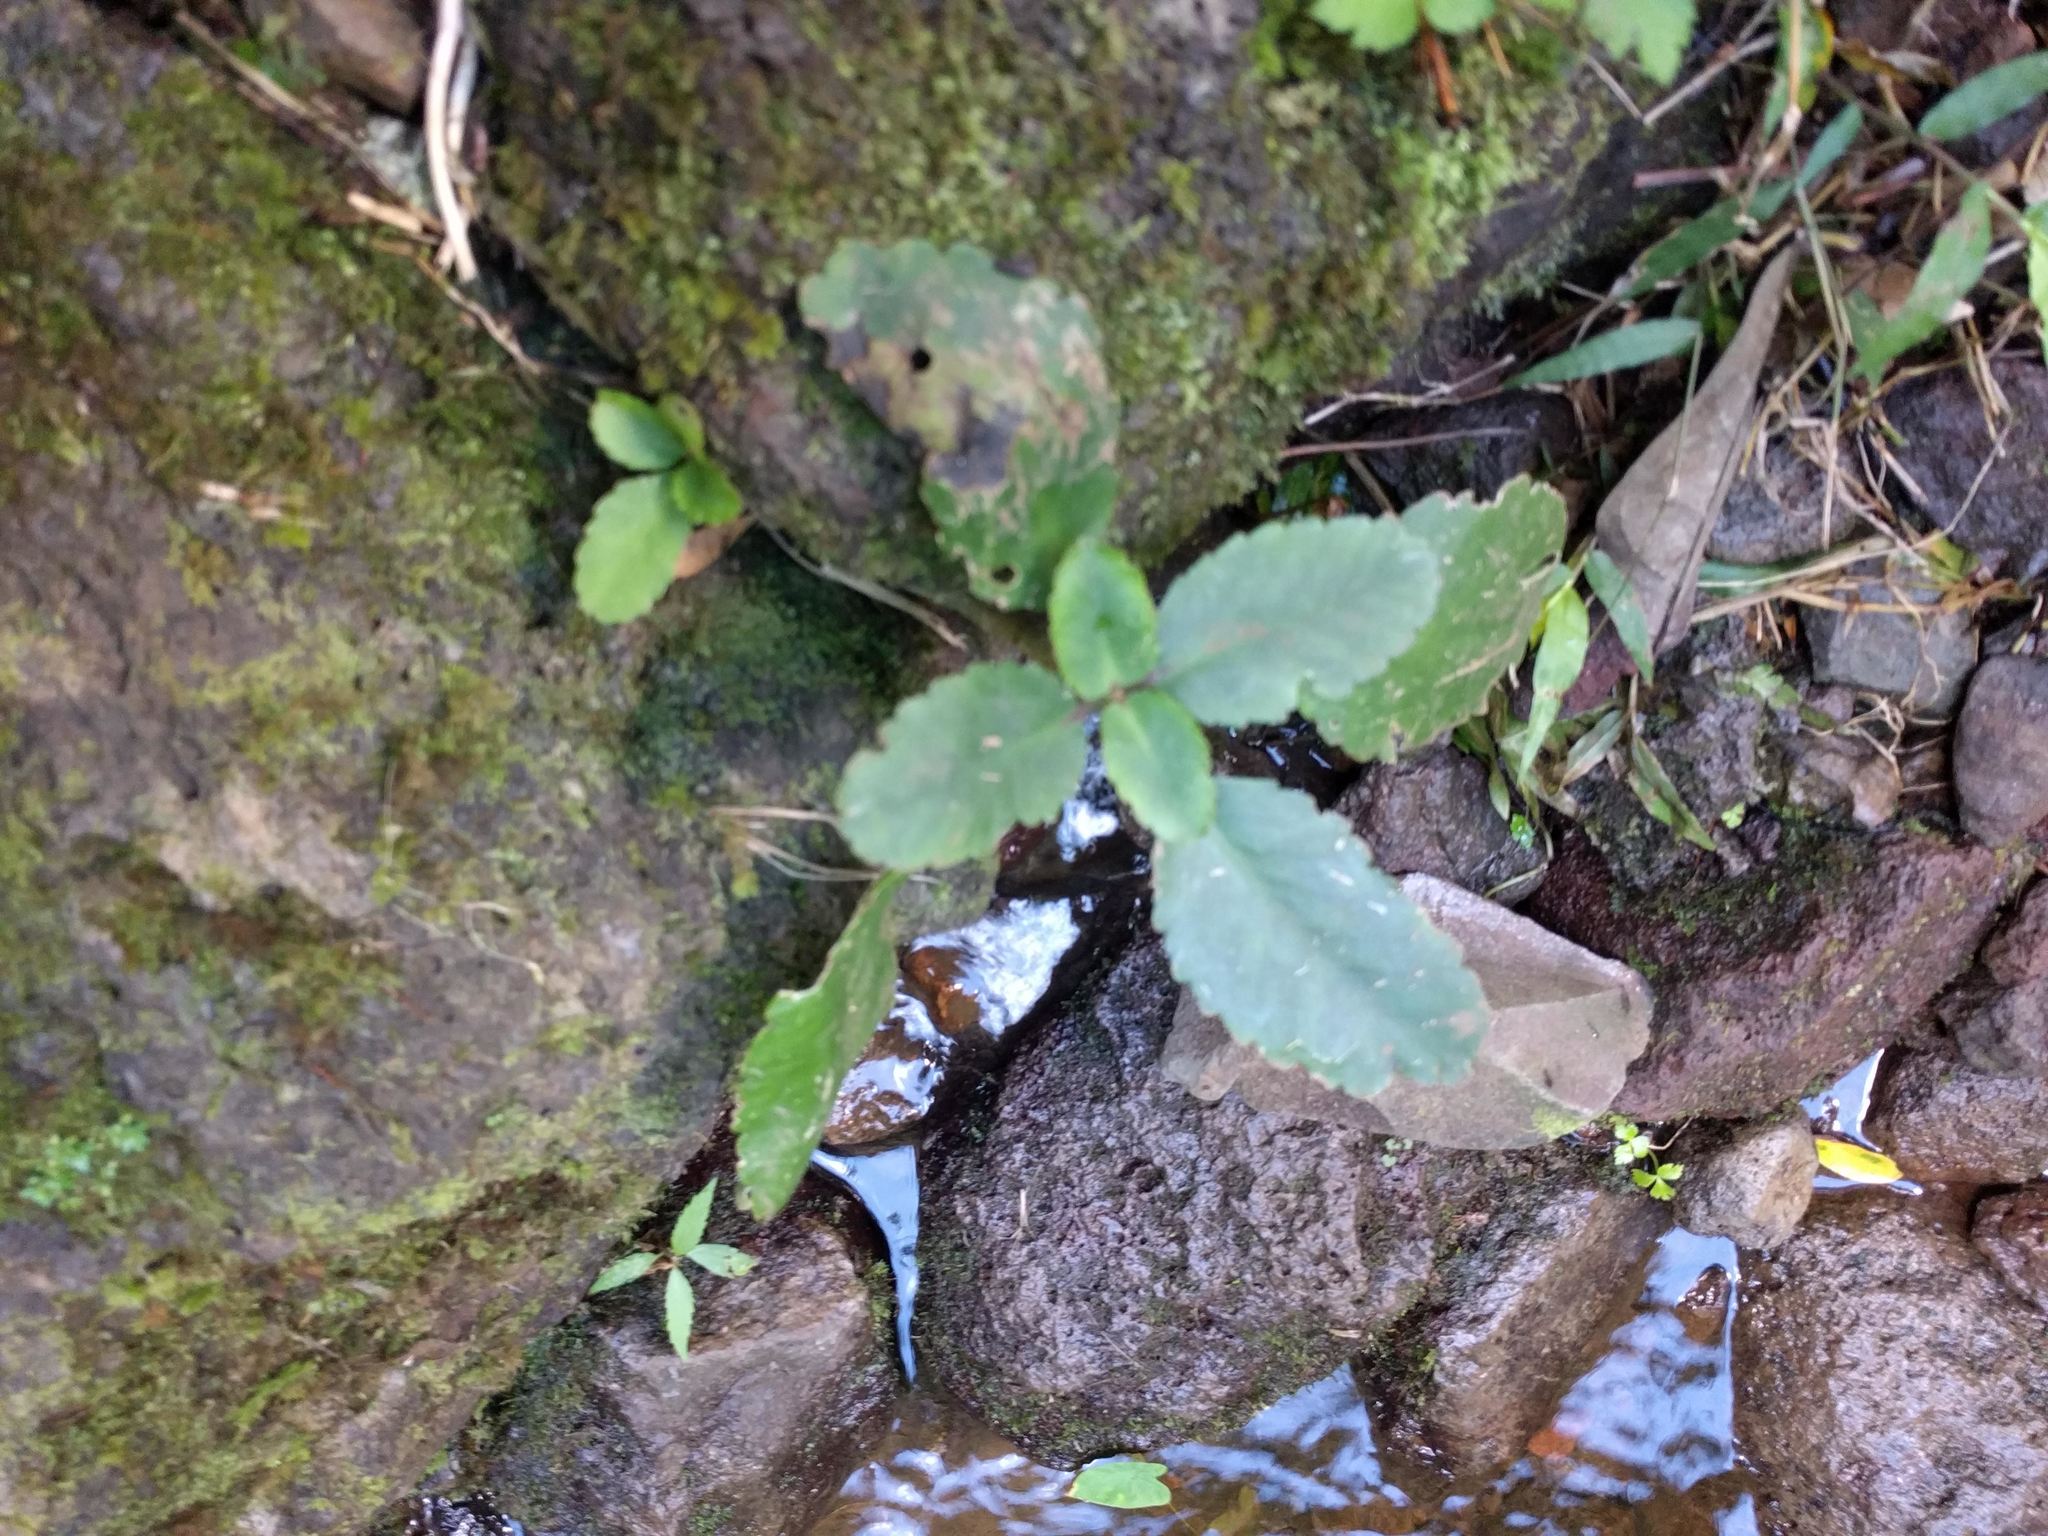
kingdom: Plantae
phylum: Tracheophyta
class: Magnoliopsida
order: Saxifragales
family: Crassulaceae
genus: Kalanchoe
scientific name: Kalanchoe pinnata
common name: Cathedral bells
